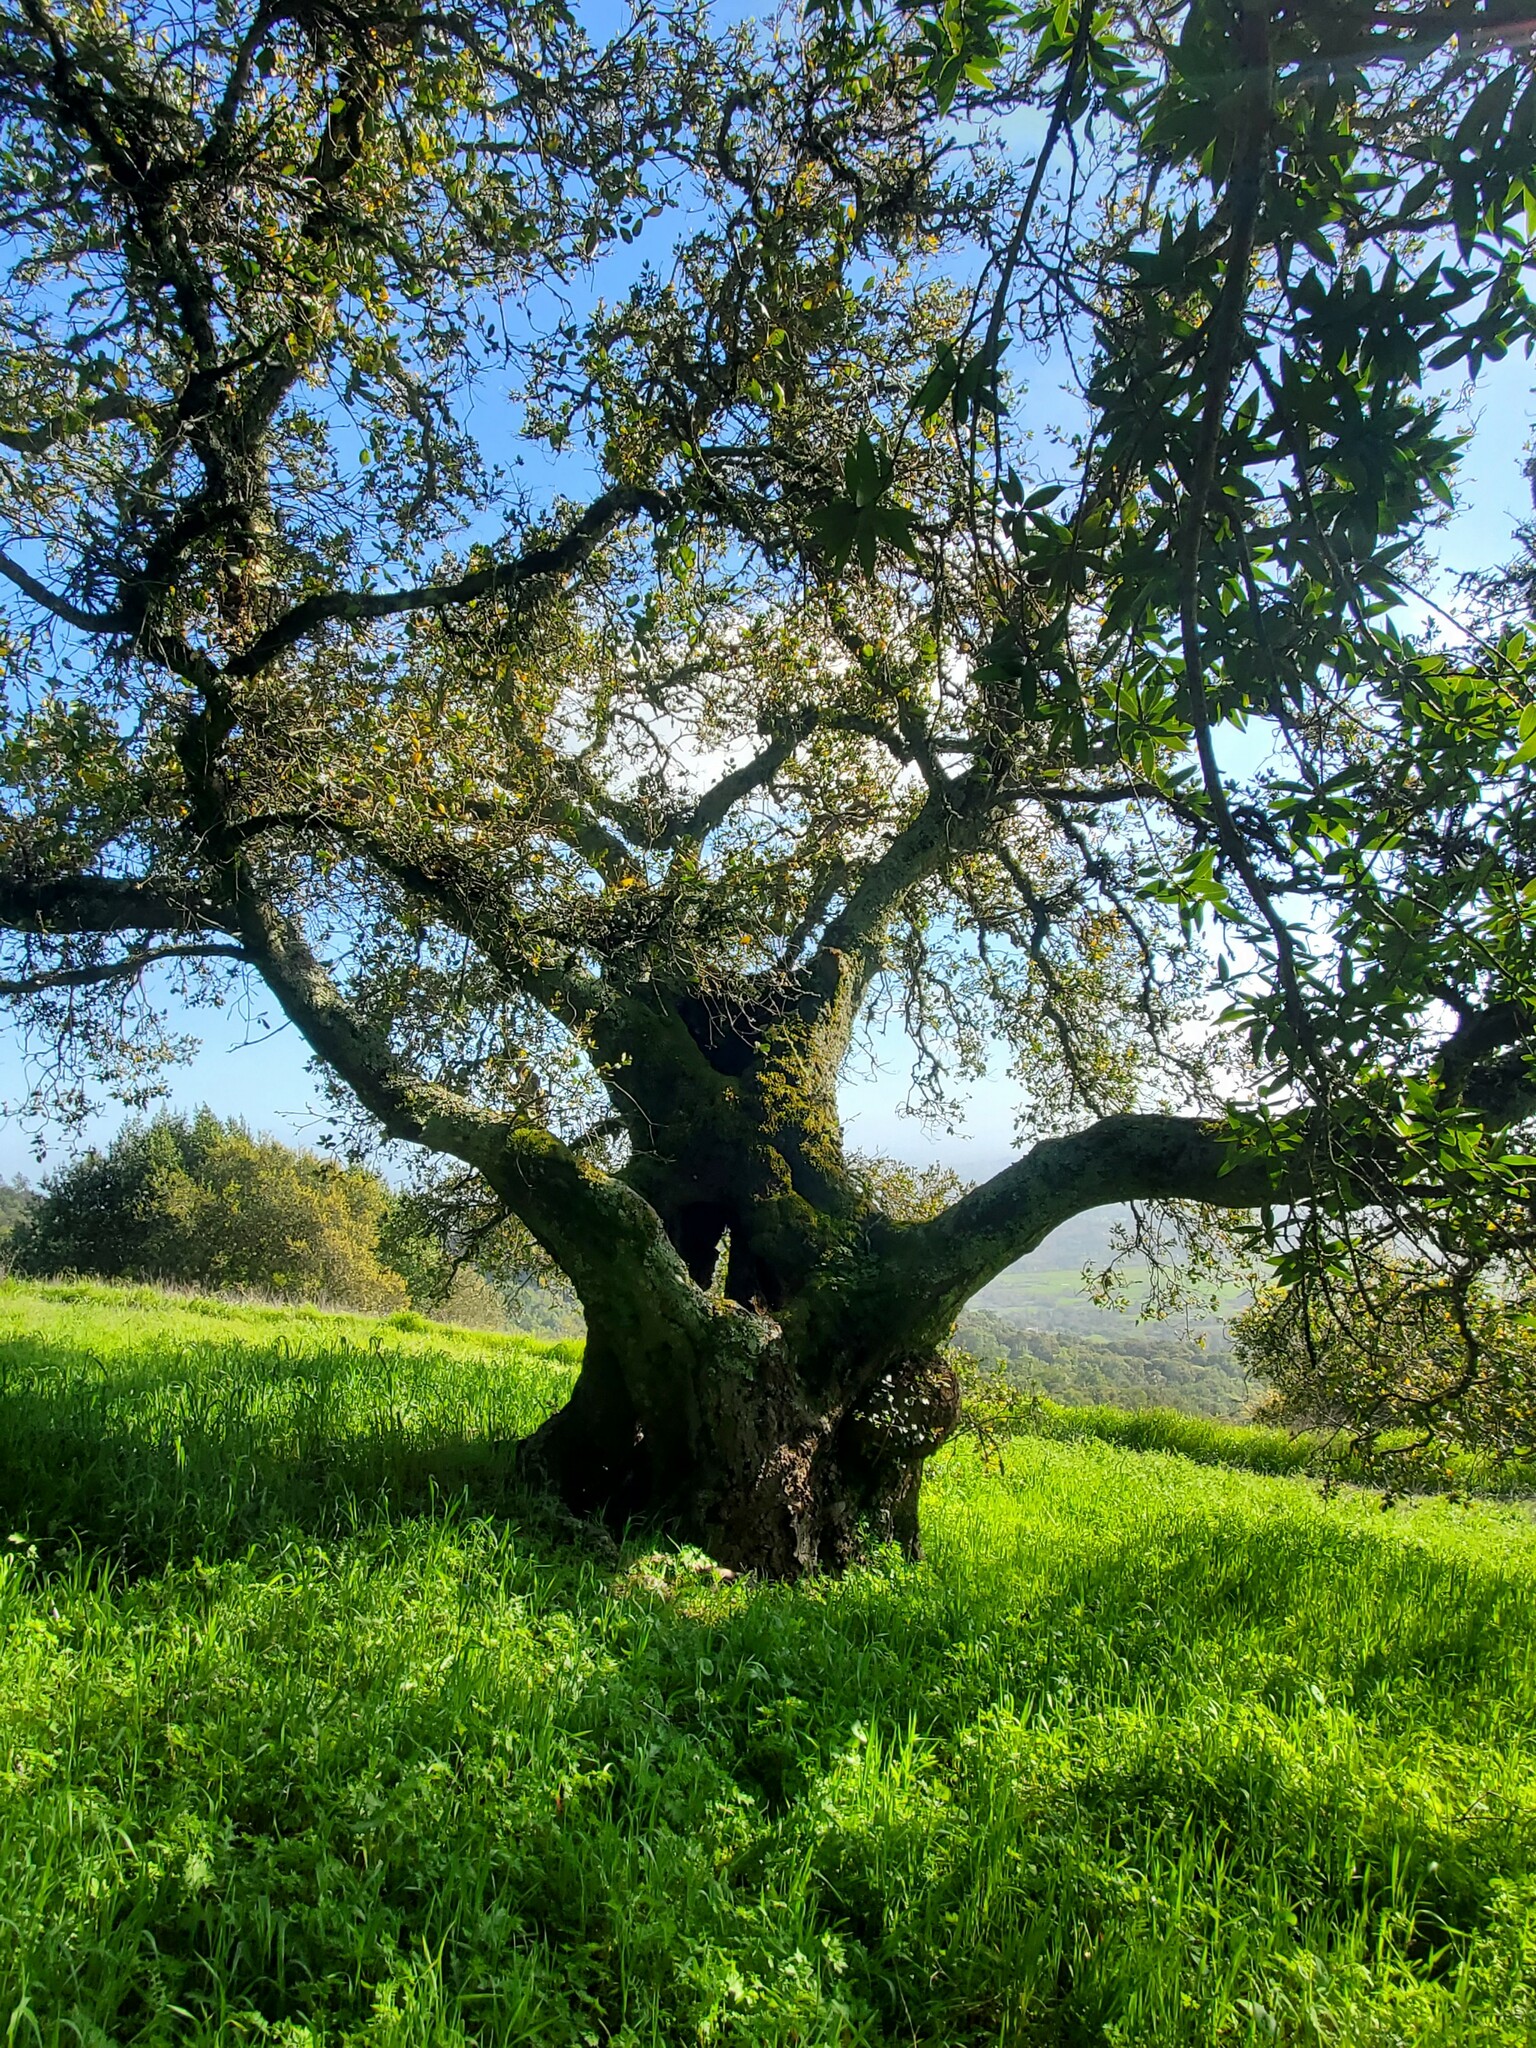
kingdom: Plantae
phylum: Tracheophyta
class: Magnoliopsida
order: Fagales
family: Fagaceae
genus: Quercus
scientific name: Quercus agrifolia
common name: California live oak
